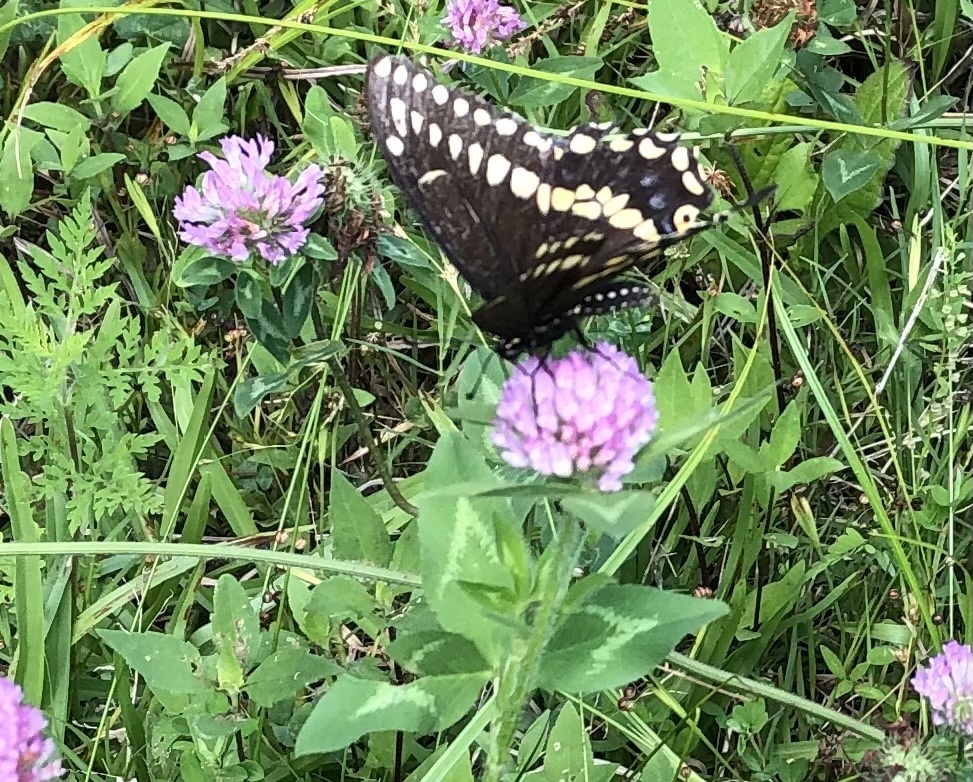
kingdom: Animalia
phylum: Arthropoda
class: Insecta
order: Lepidoptera
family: Papilionidae
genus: Papilio
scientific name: Papilio polyxenes
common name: Black swallowtail
